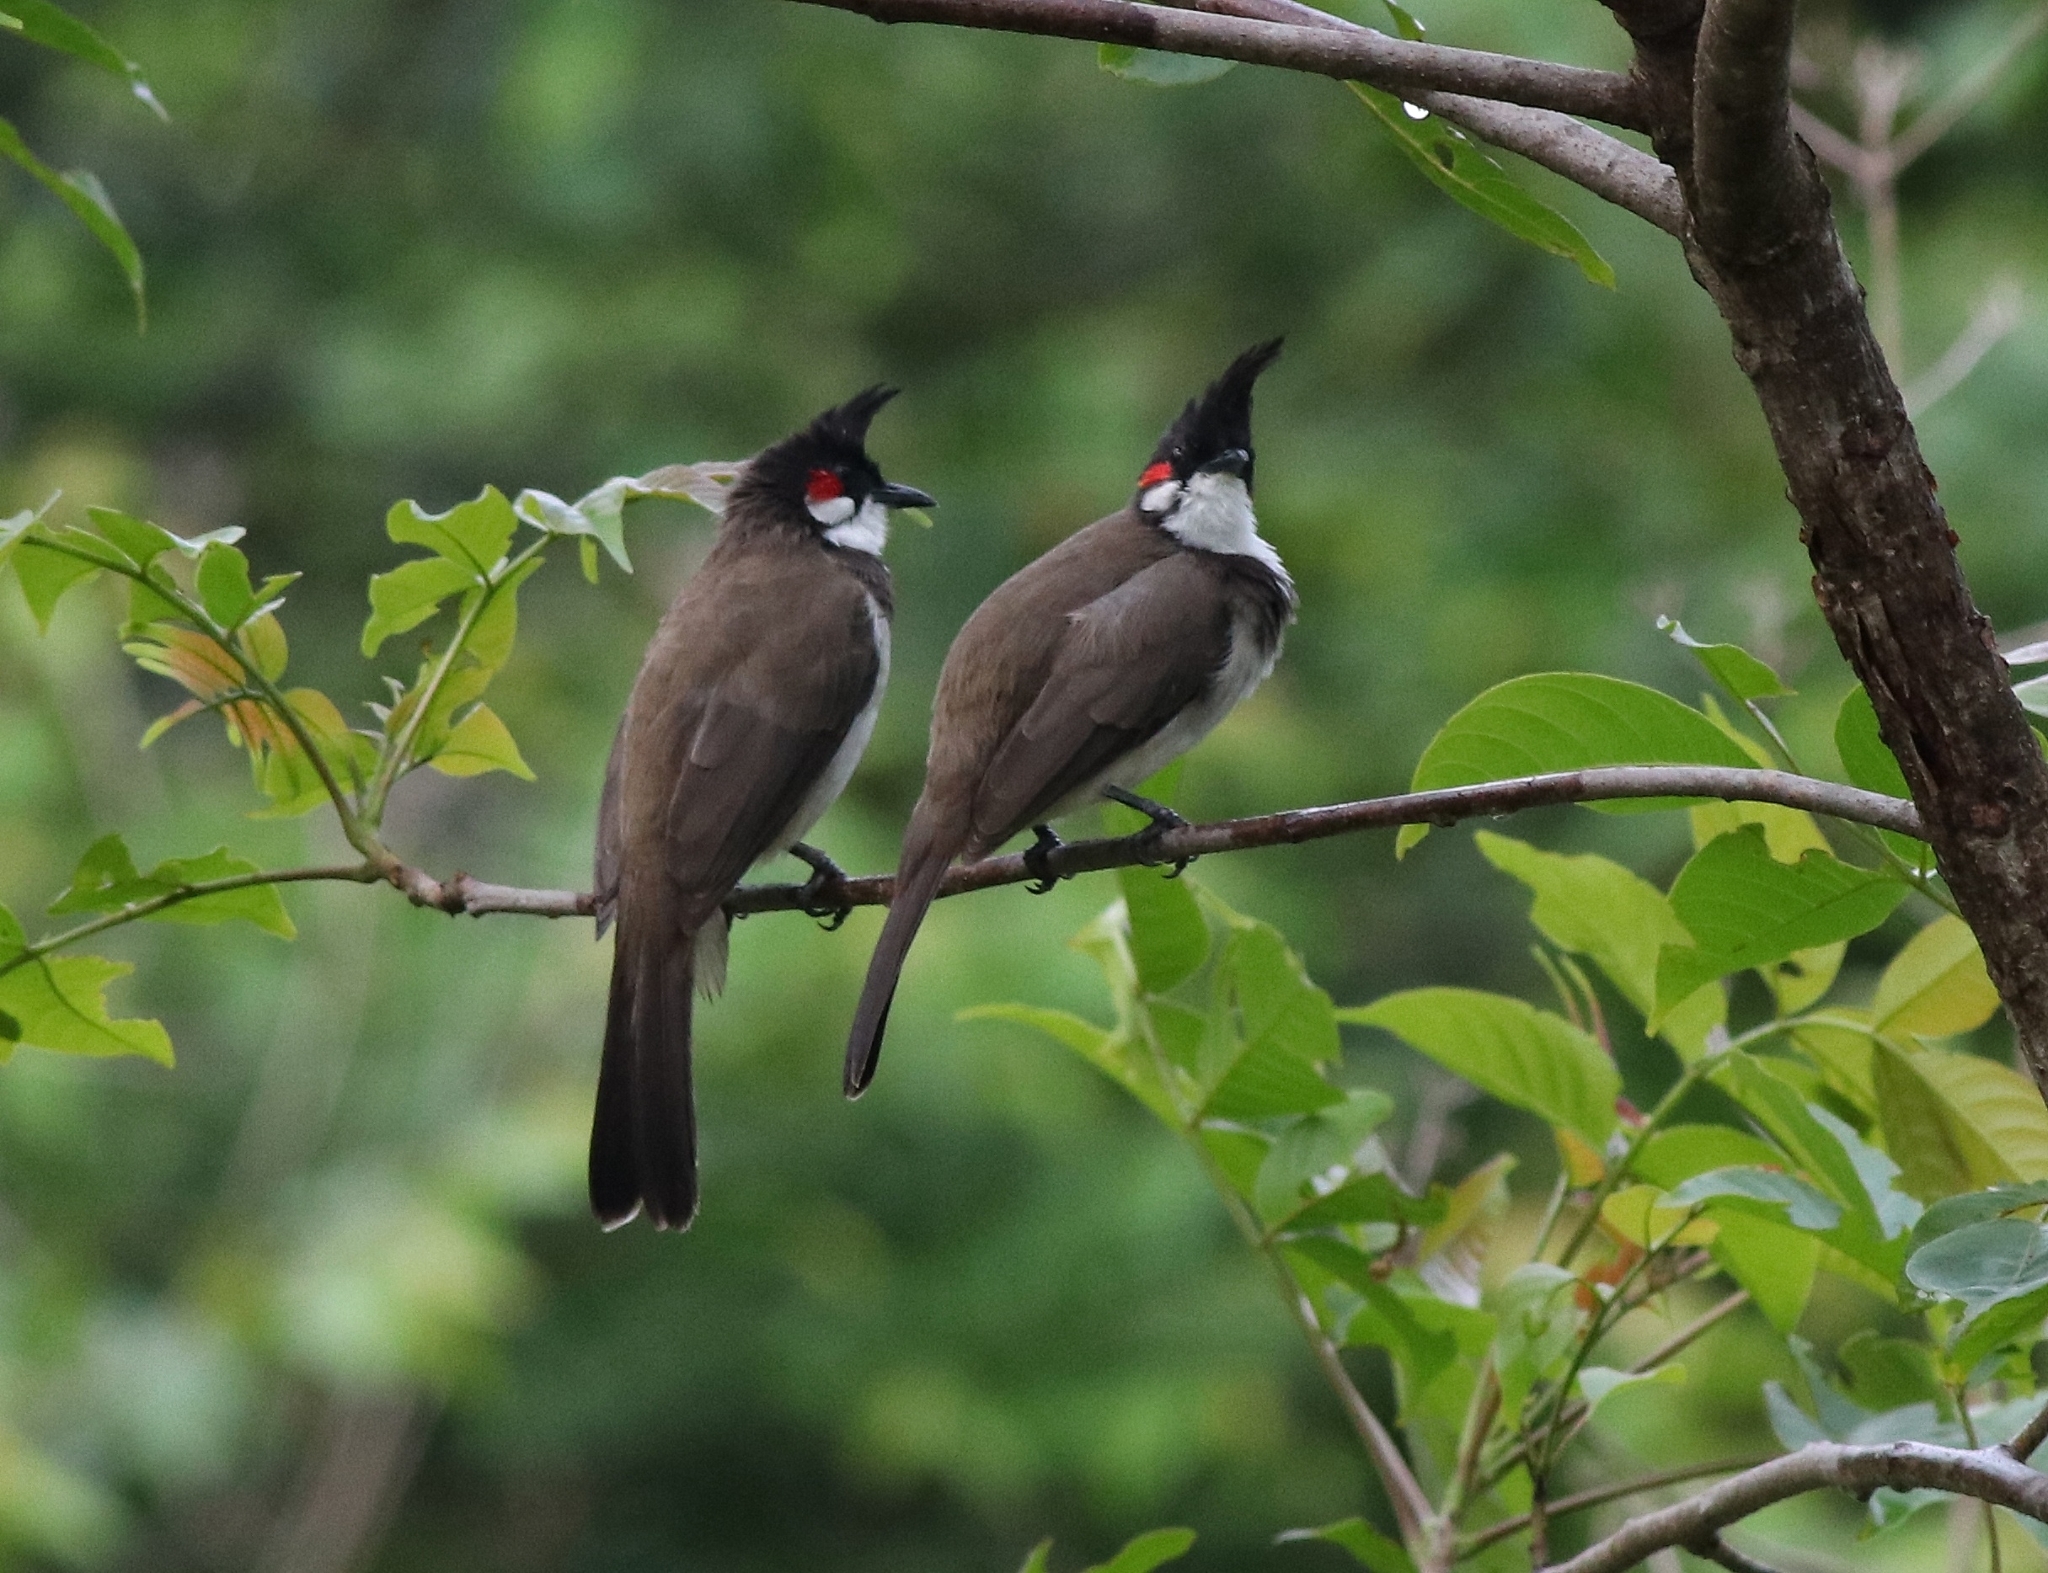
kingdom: Animalia
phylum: Chordata
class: Aves
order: Passeriformes
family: Pycnonotidae
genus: Pycnonotus
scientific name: Pycnonotus jocosus
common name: Red-whiskered bulbul
